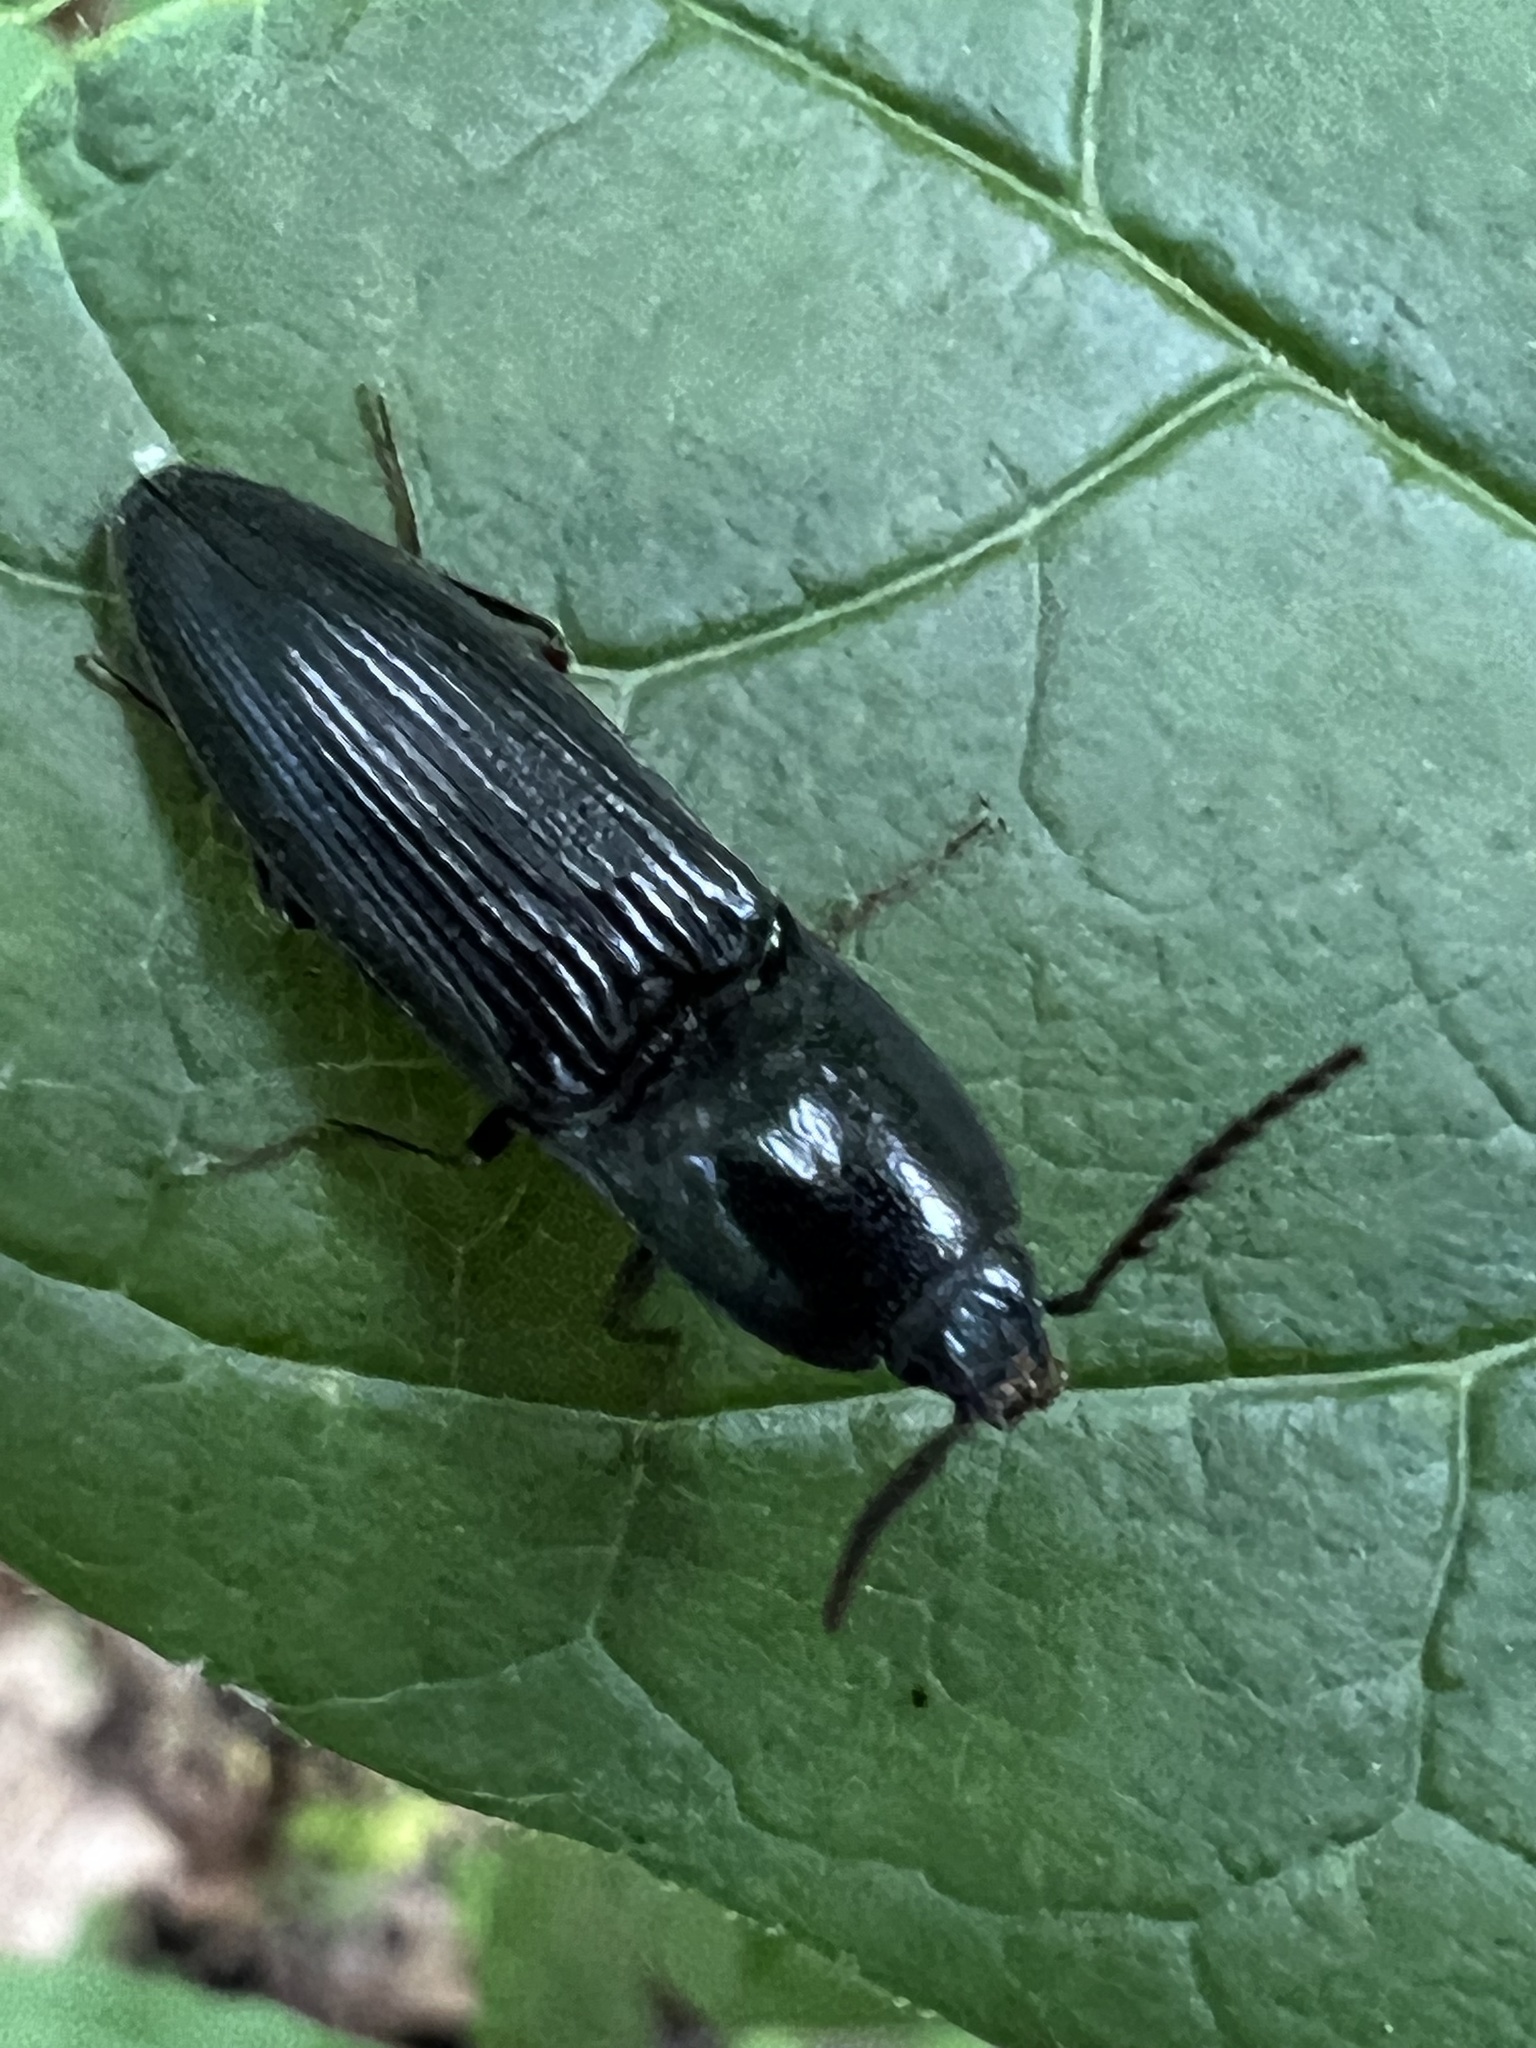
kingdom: Animalia
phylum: Arthropoda
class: Insecta
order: Coleoptera
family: Elateridae
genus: Neopristilophus
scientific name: Neopristilophus
